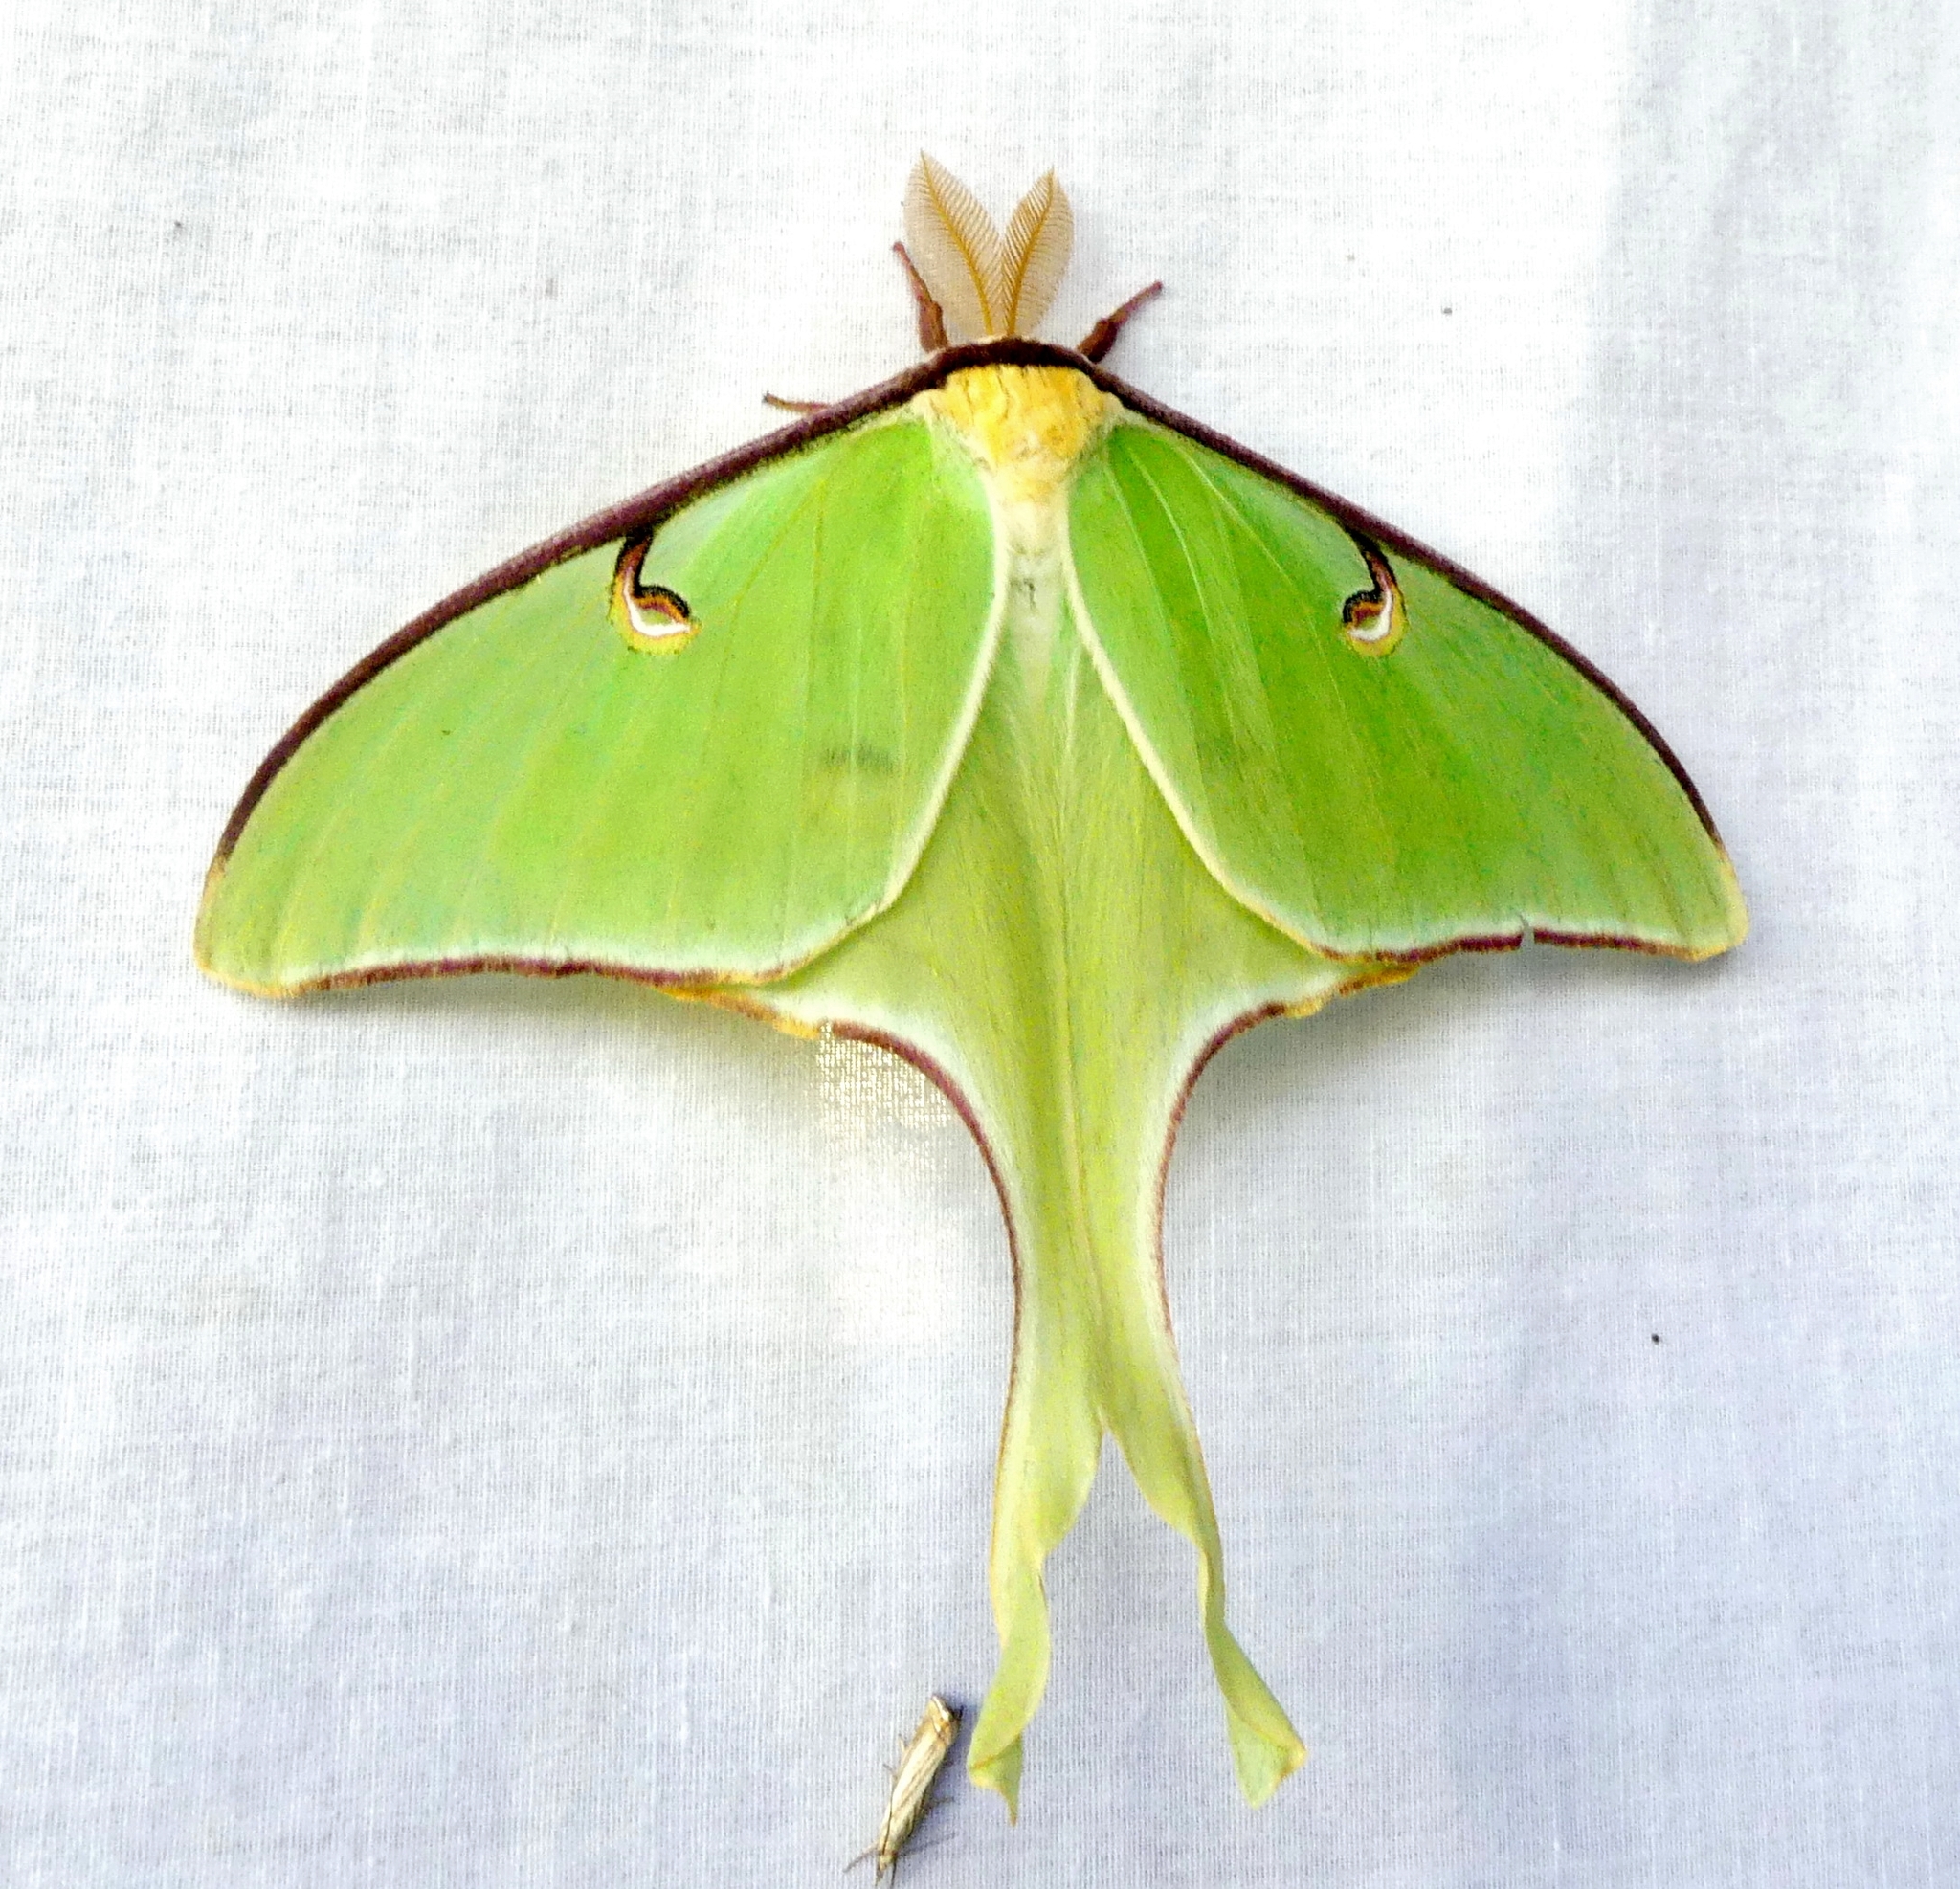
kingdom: Animalia
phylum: Arthropoda
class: Insecta
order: Lepidoptera
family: Saturniidae
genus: Actias
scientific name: Actias luna
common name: Luna moth
